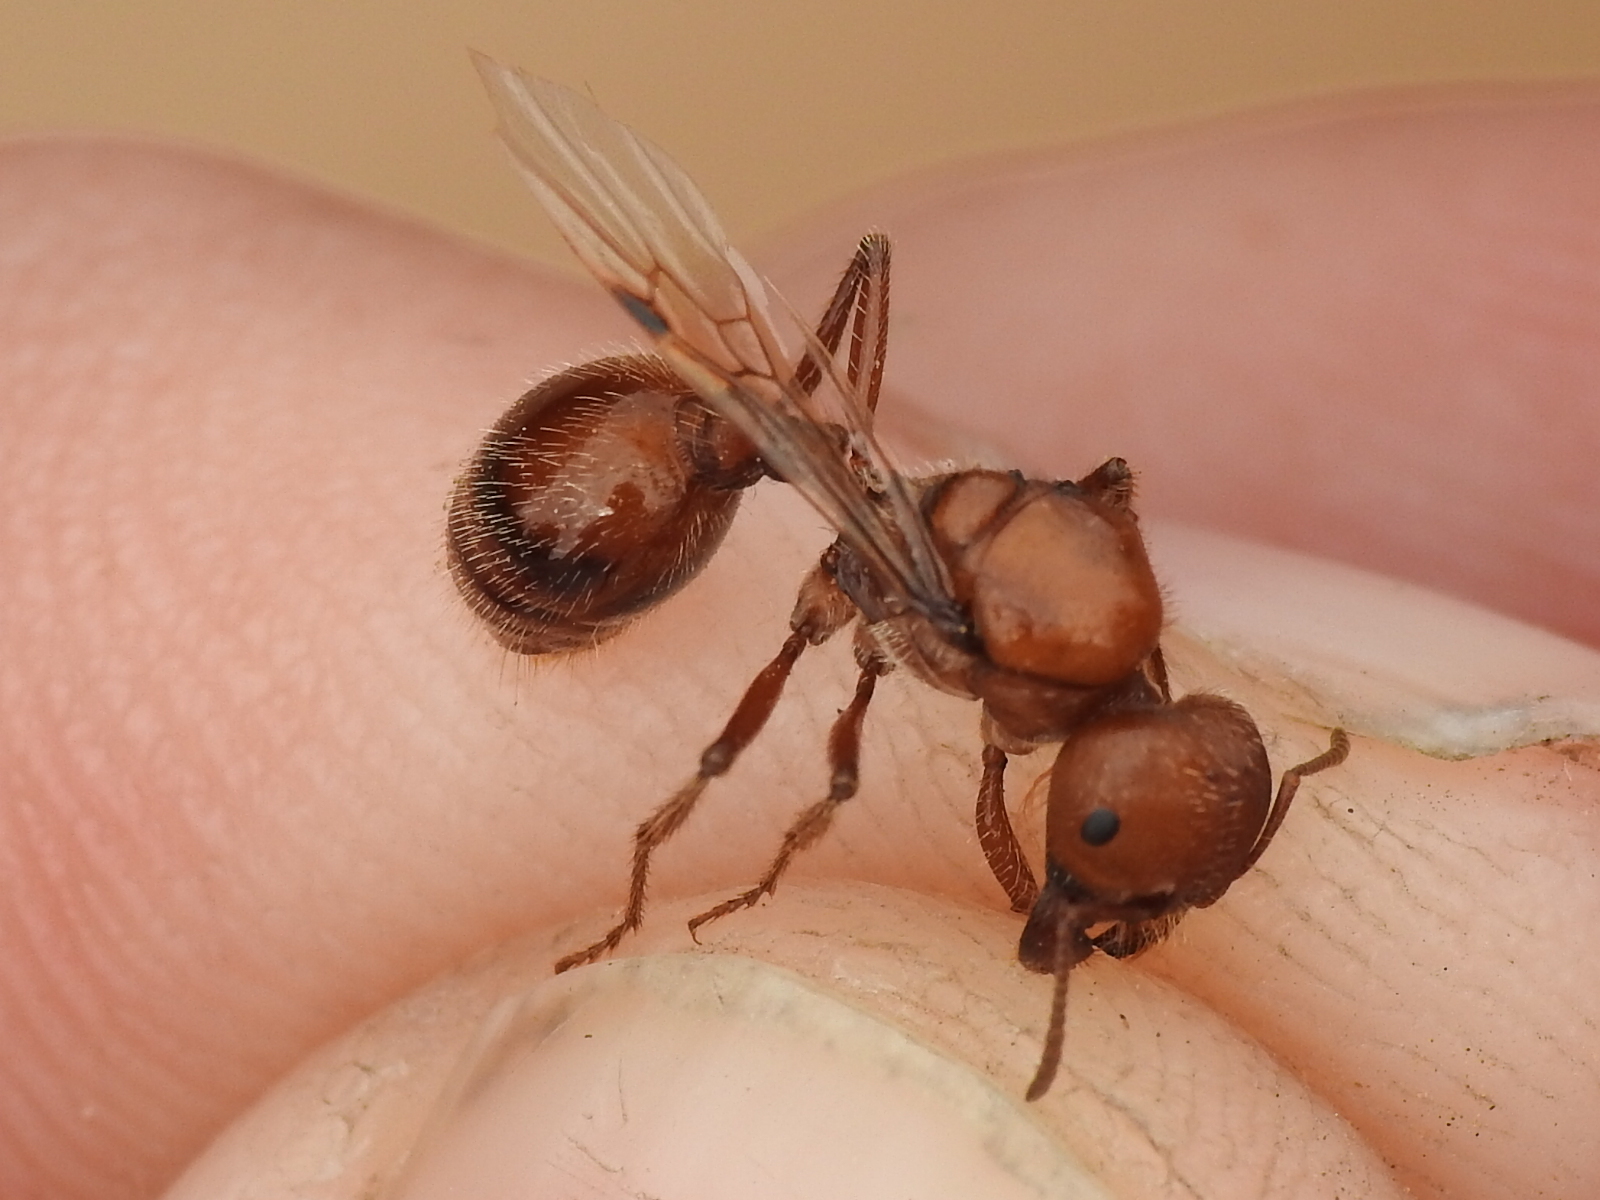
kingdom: Animalia
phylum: Arthropoda
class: Insecta
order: Hymenoptera
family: Formicidae
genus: Pogonomyrmex
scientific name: Pogonomyrmex barbatus
